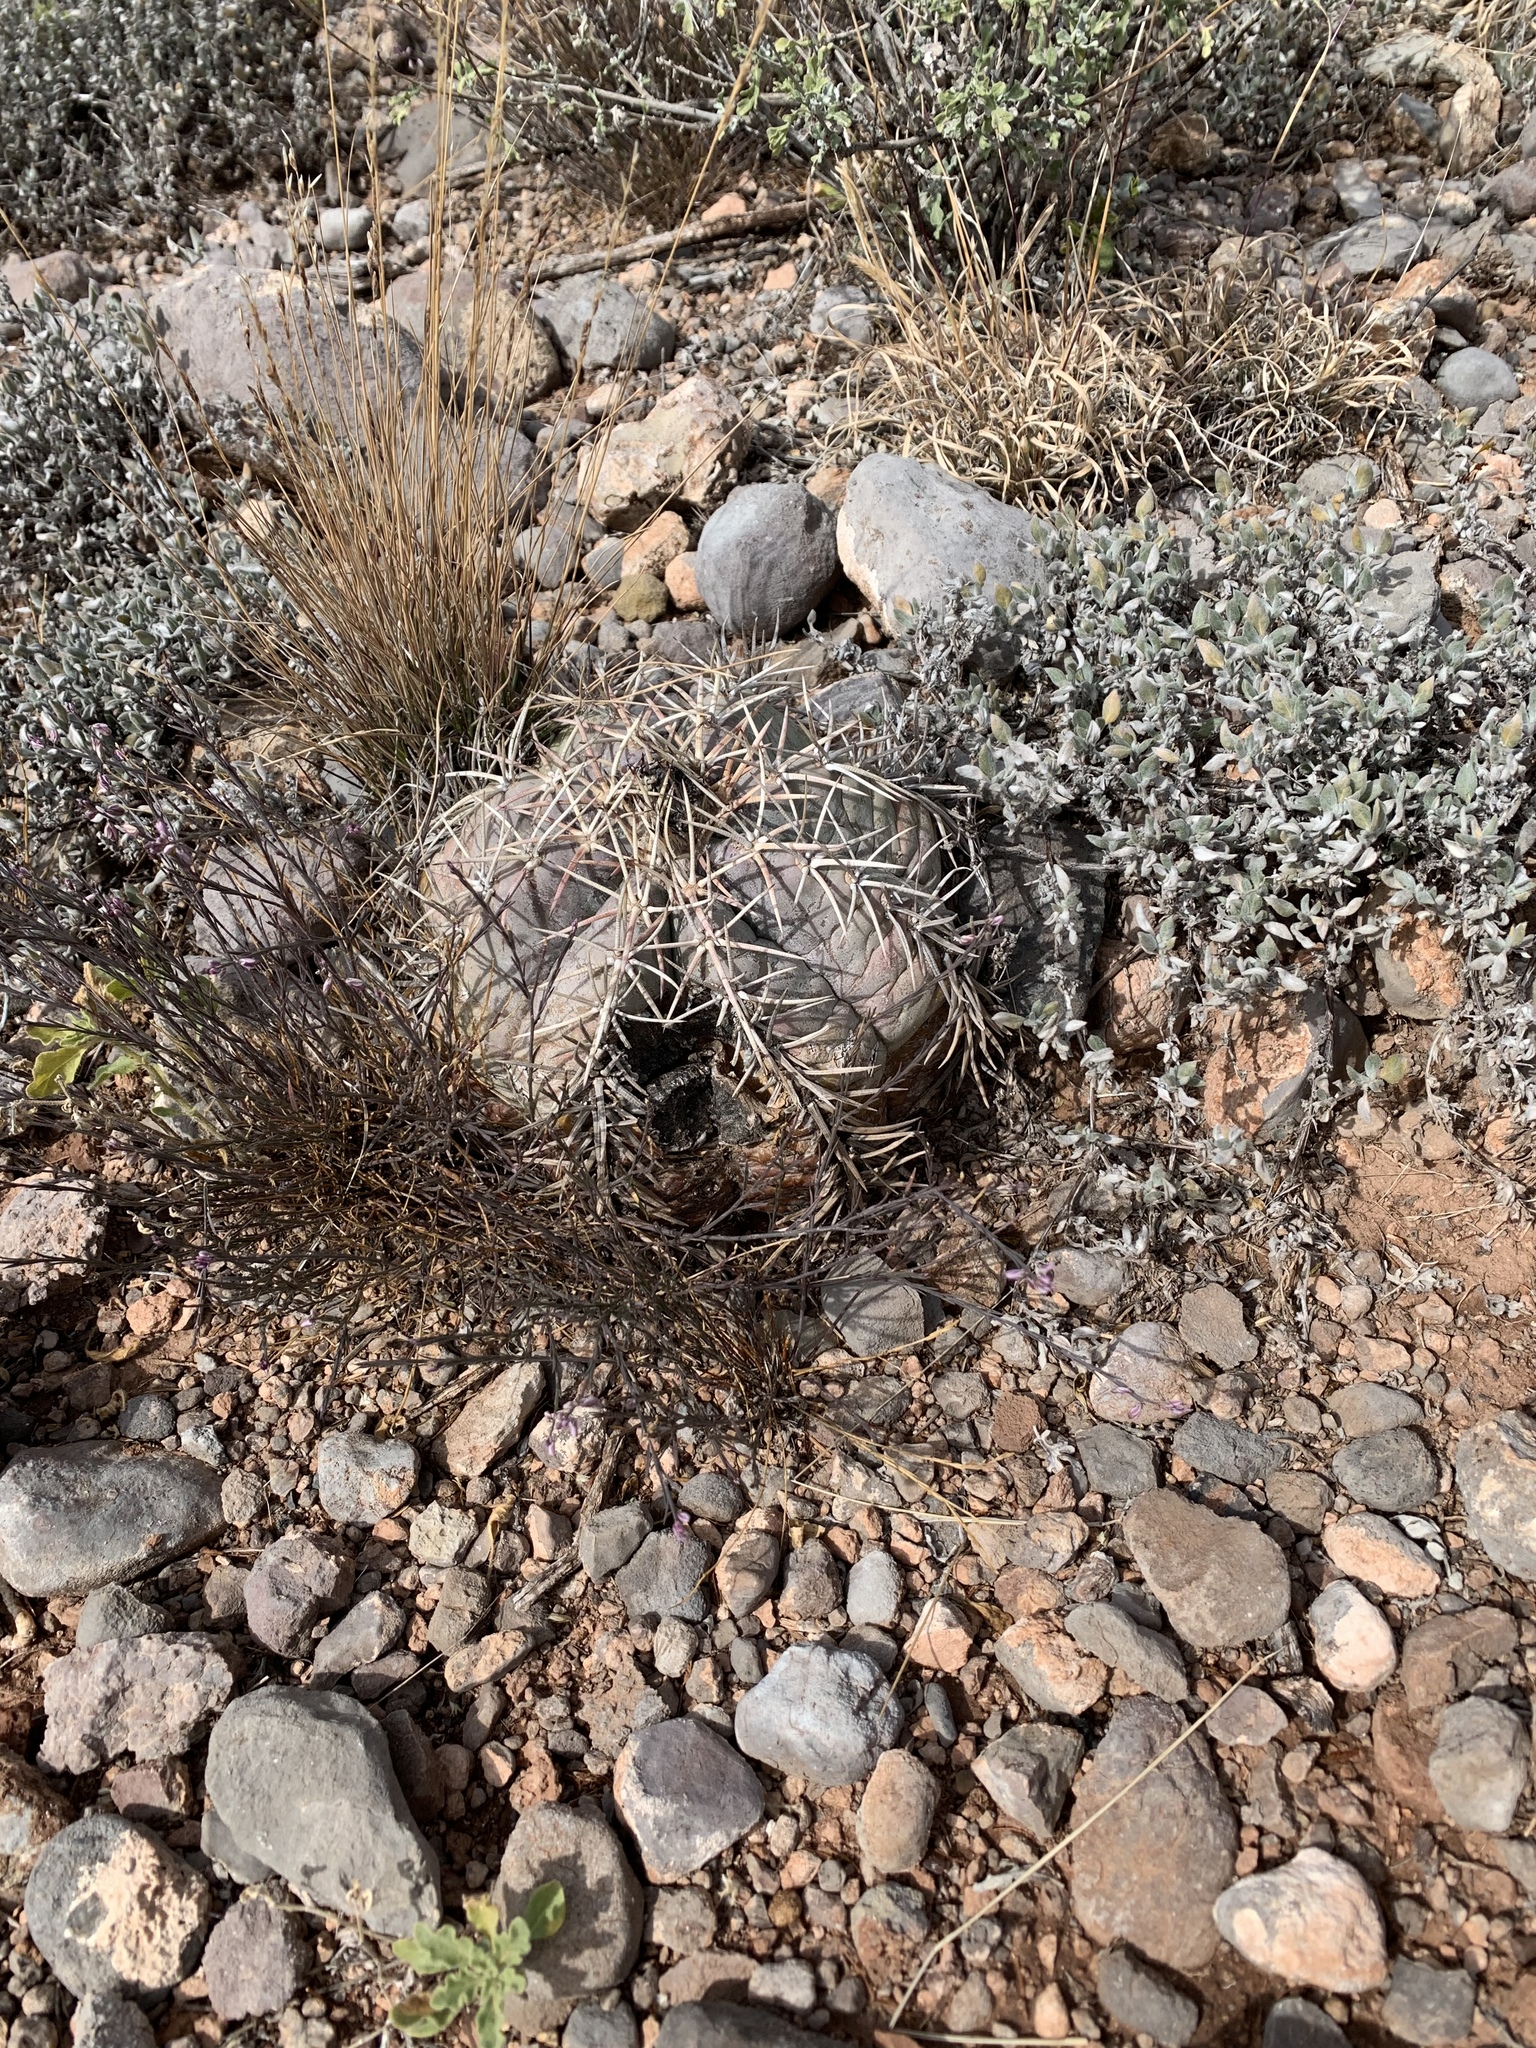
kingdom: Plantae
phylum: Tracheophyta
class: Magnoliopsida
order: Caryophyllales
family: Cactaceae
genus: Echinocactus
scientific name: Echinocactus horizonthalonius
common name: Devilshead
